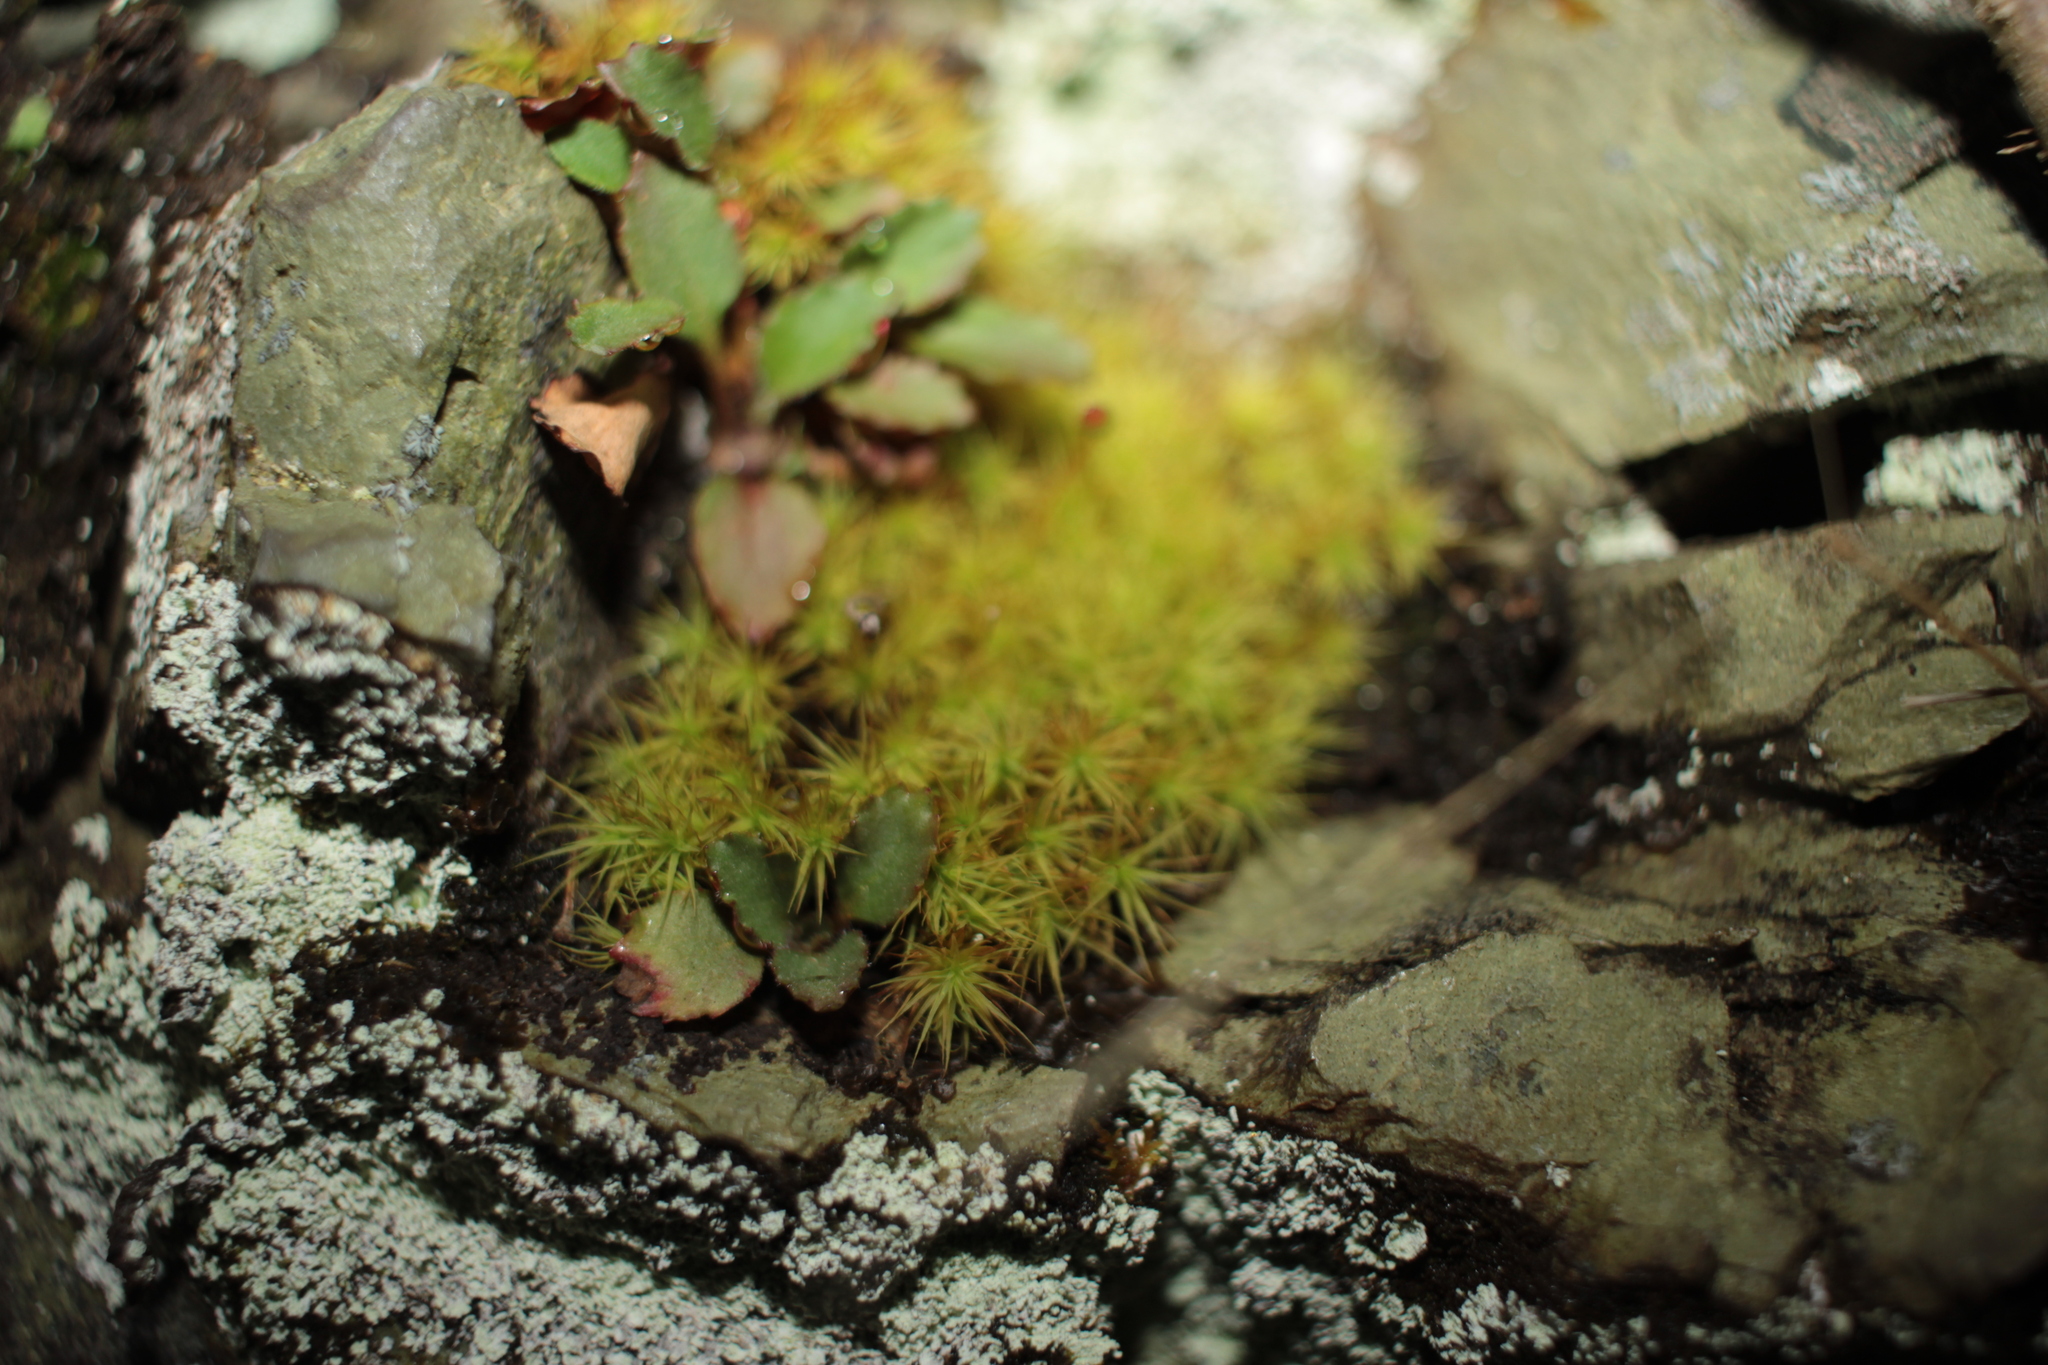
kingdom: Plantae
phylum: Tracheophyta
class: Magnoliopsida
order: Saxifragales
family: Saxifragaceae
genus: Micranthes
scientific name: Micranthes virginiensis
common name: Early saxifrage
